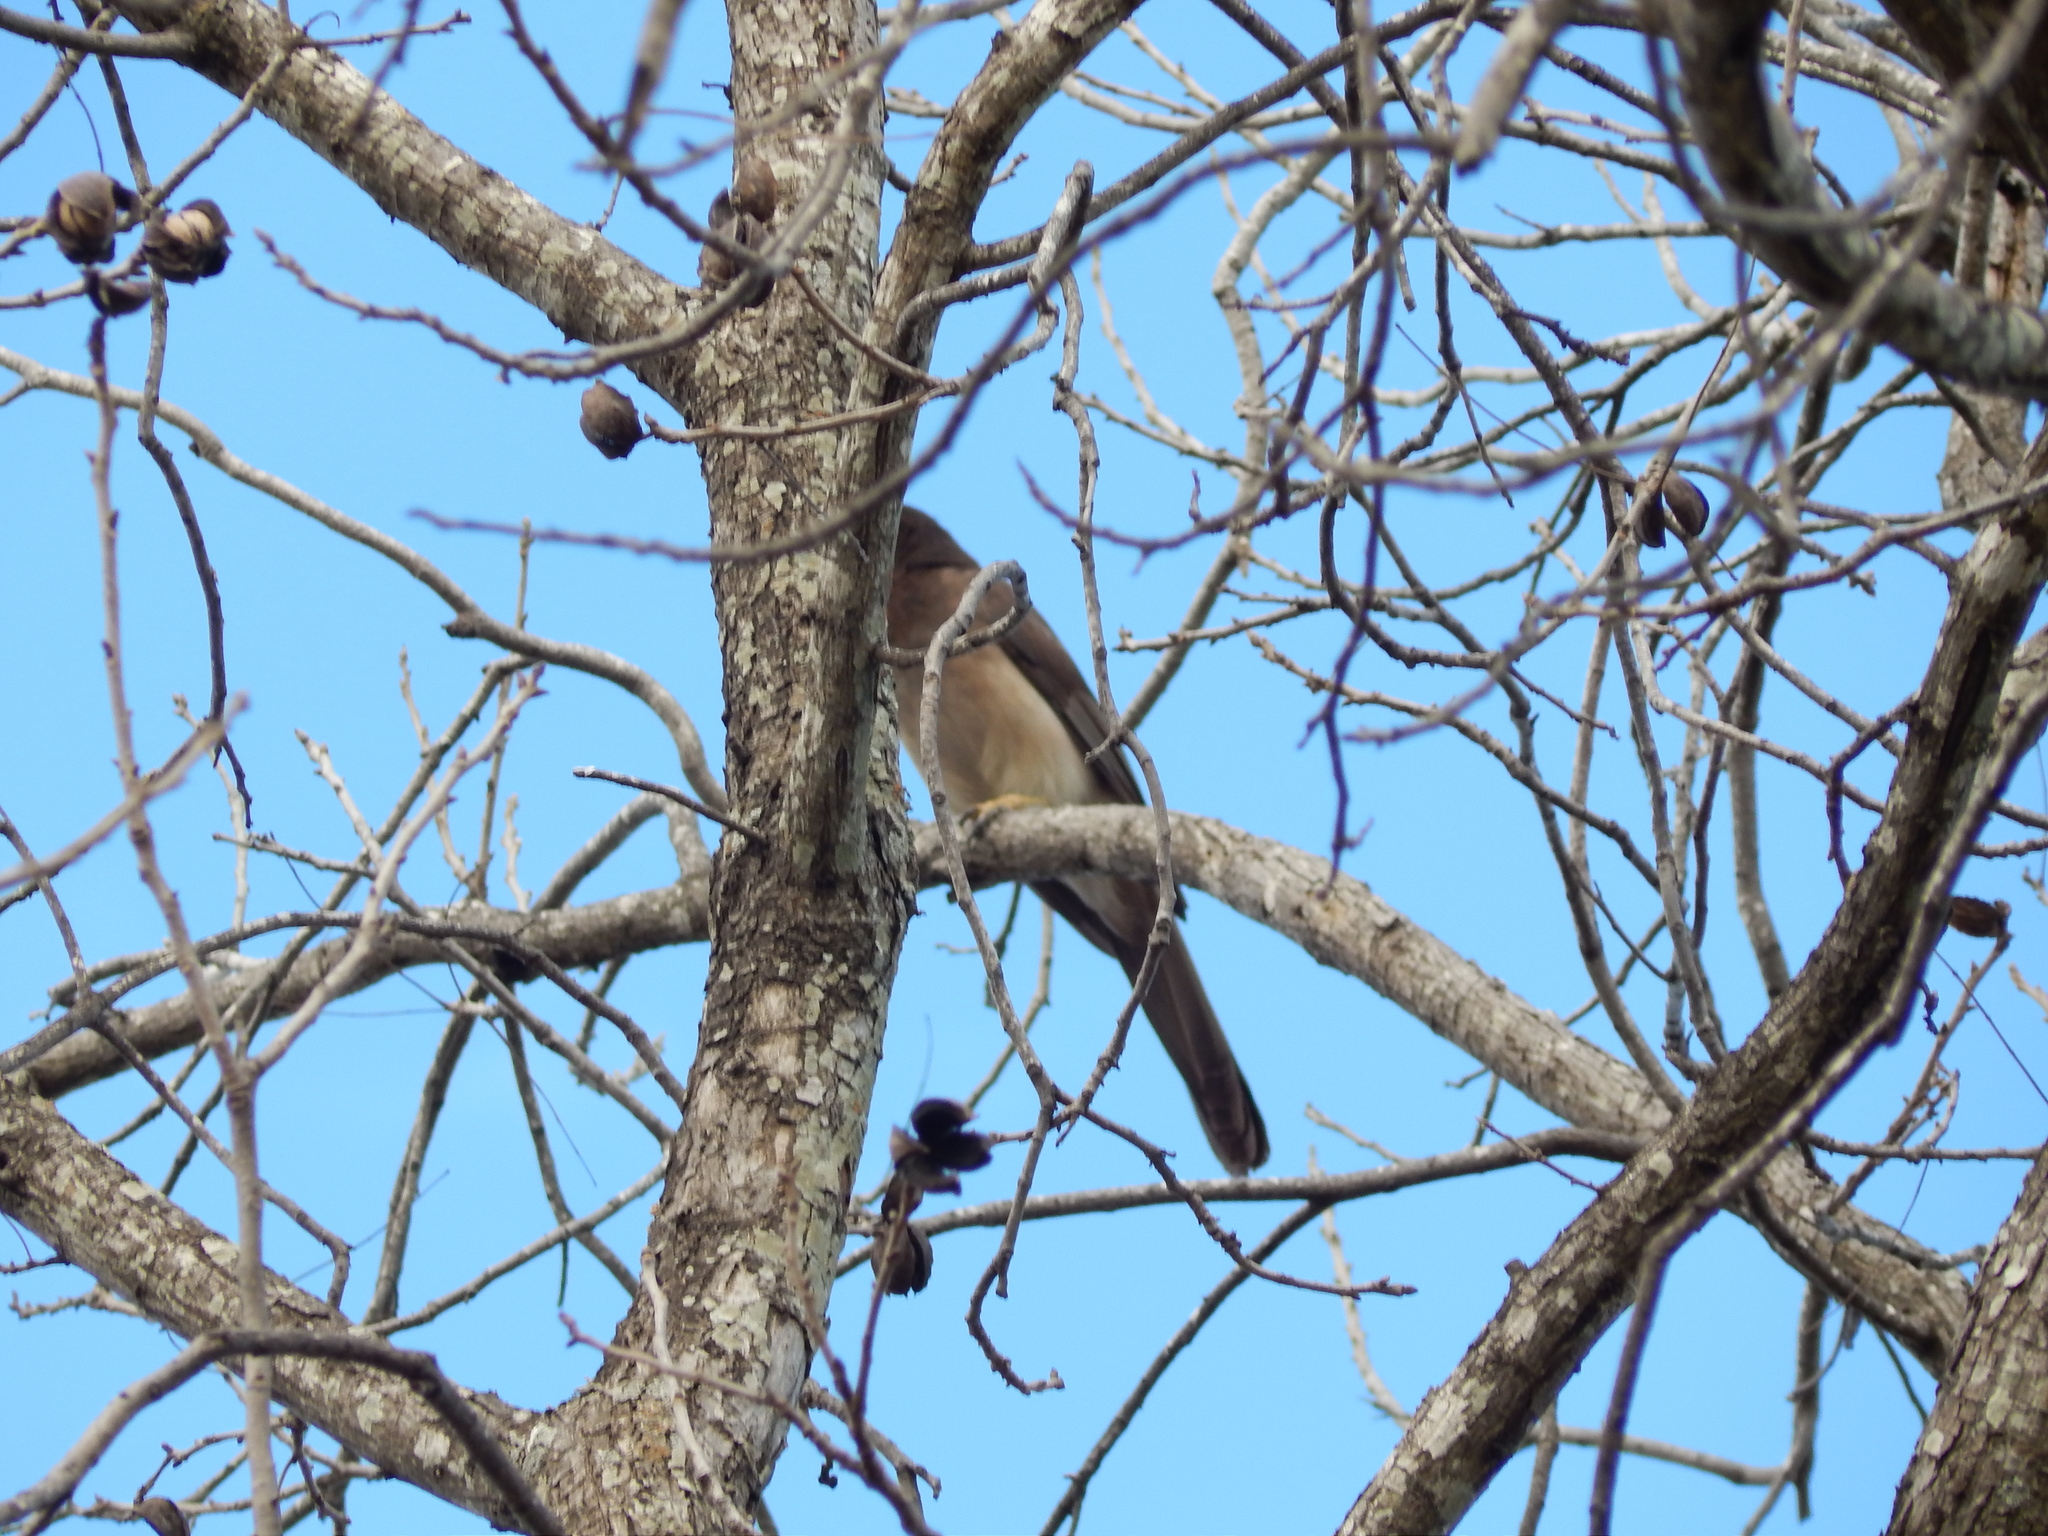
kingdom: Animalia
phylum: Chordata
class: Aves
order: Passeriformes
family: Corvidae
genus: Psilorhinus
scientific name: Psilorhinus morio
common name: Brown jay
